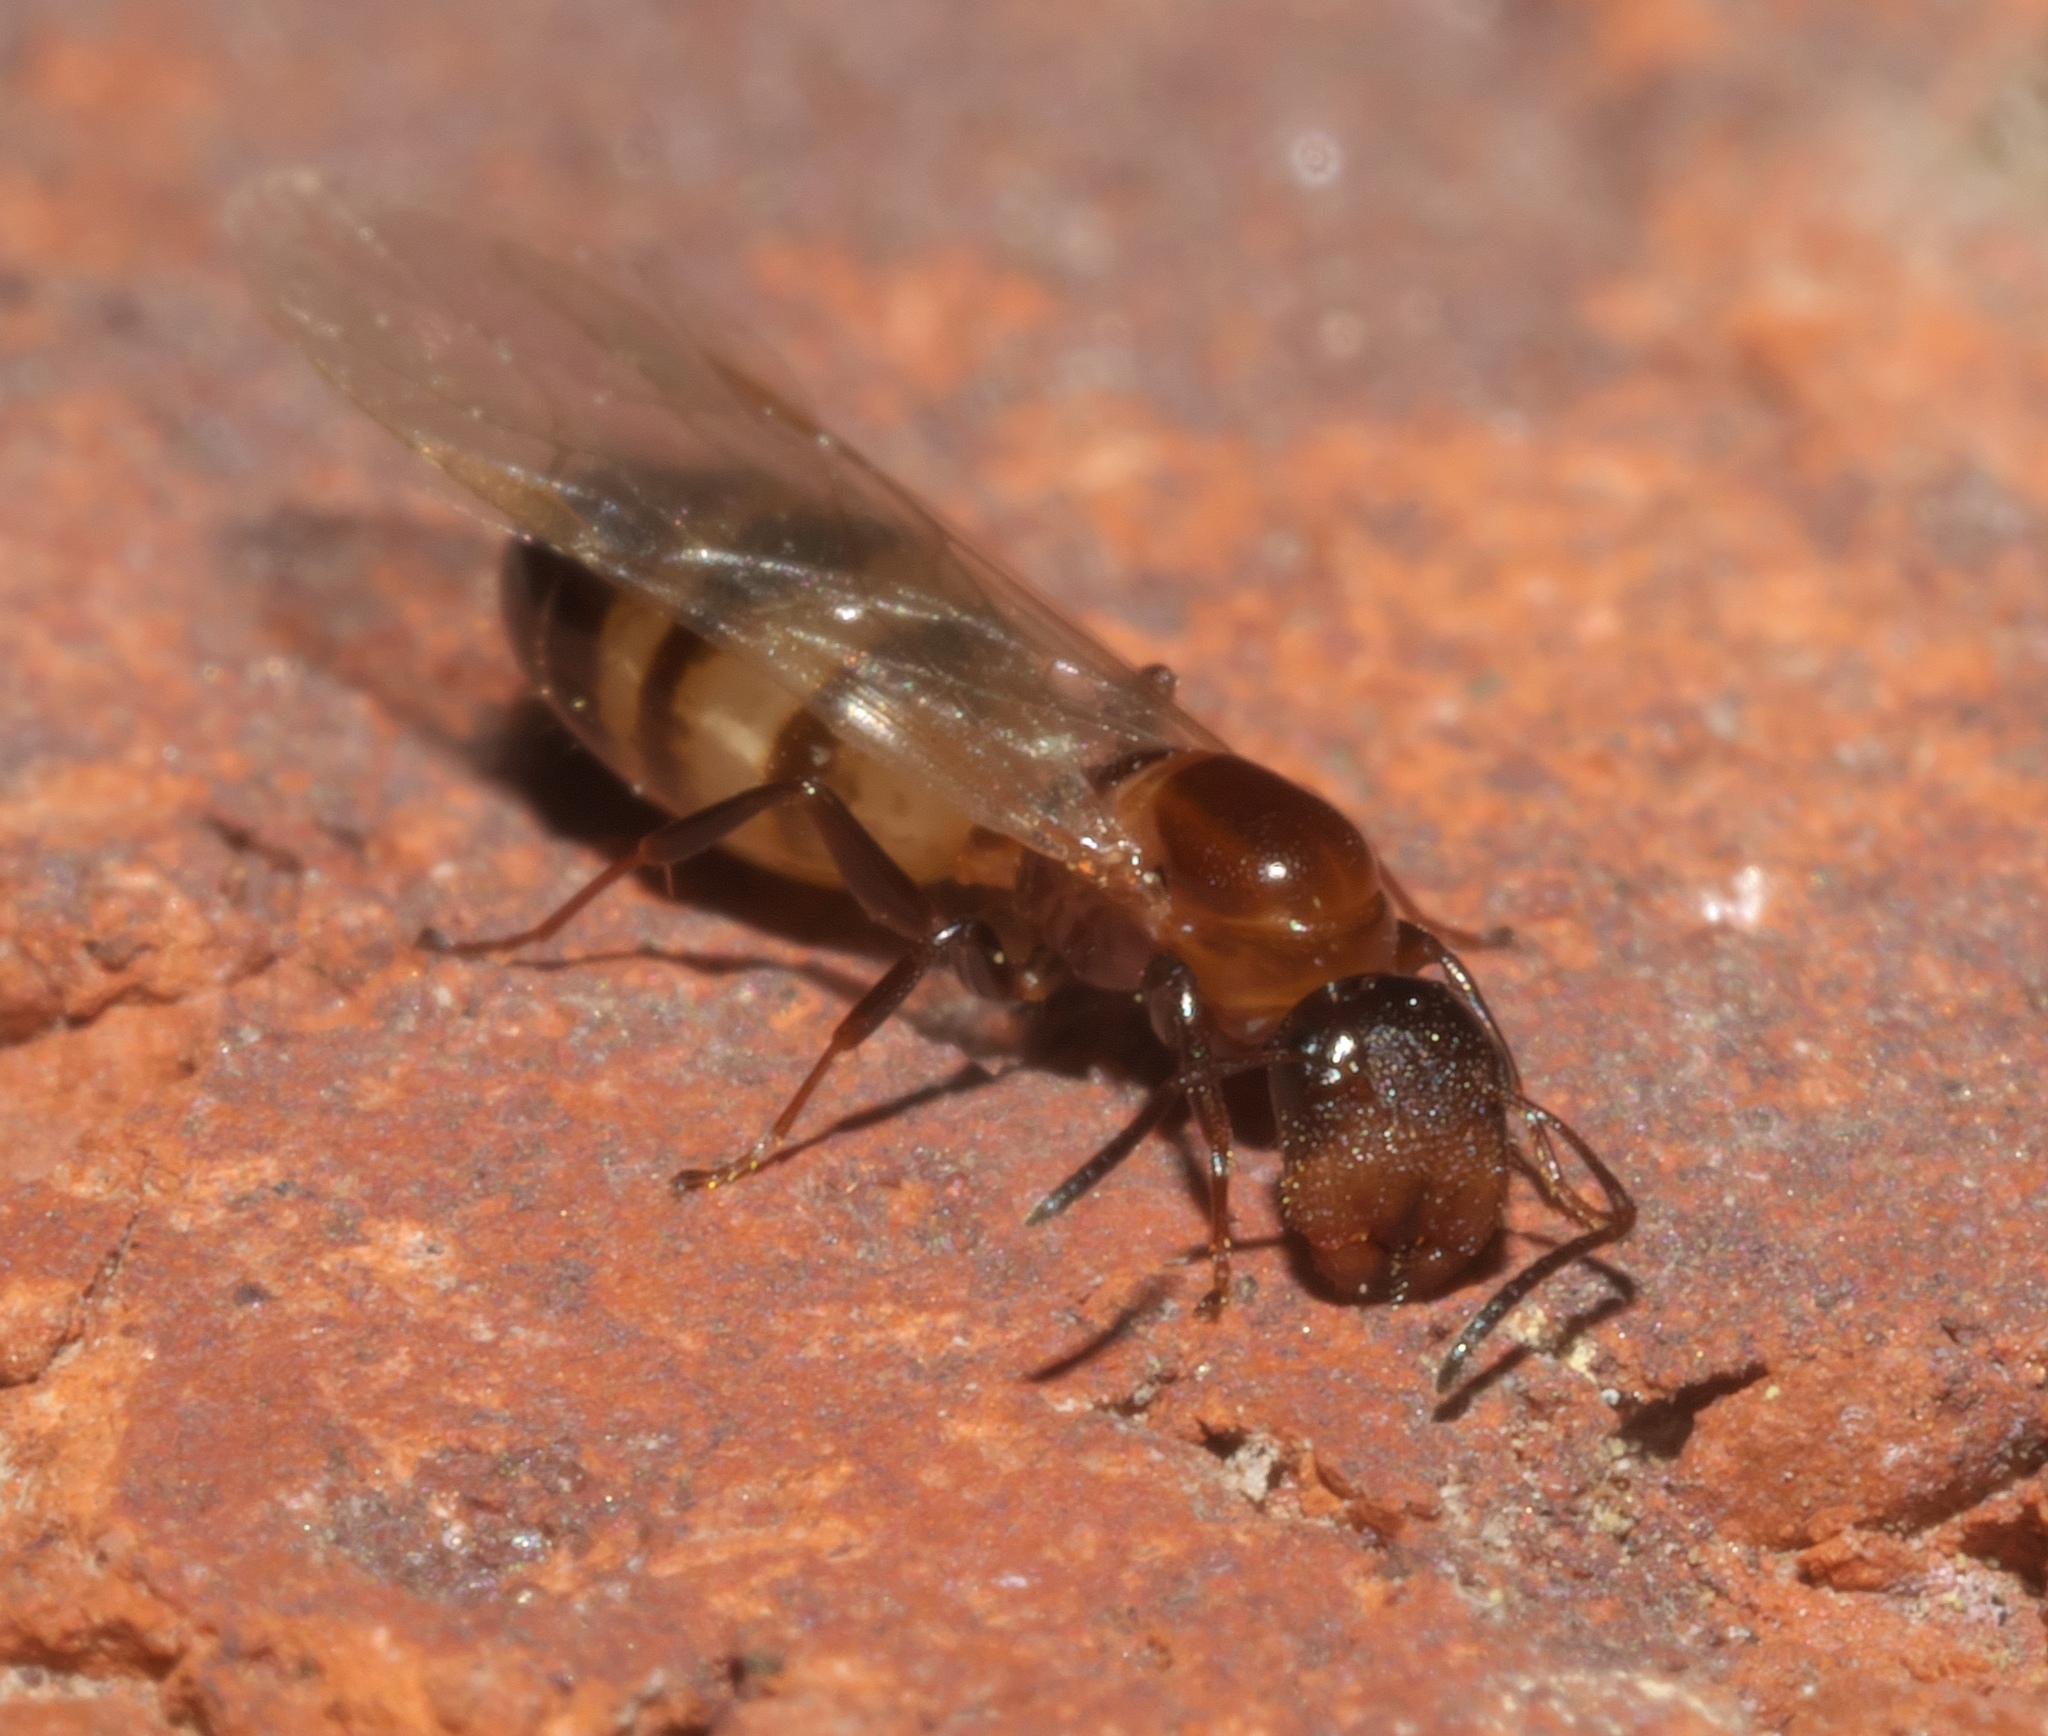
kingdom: Animalia
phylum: Arthropoda
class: Insecta
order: Hymenoptera
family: Formicidae
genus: Colobopsis
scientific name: Colobopsis impressa
